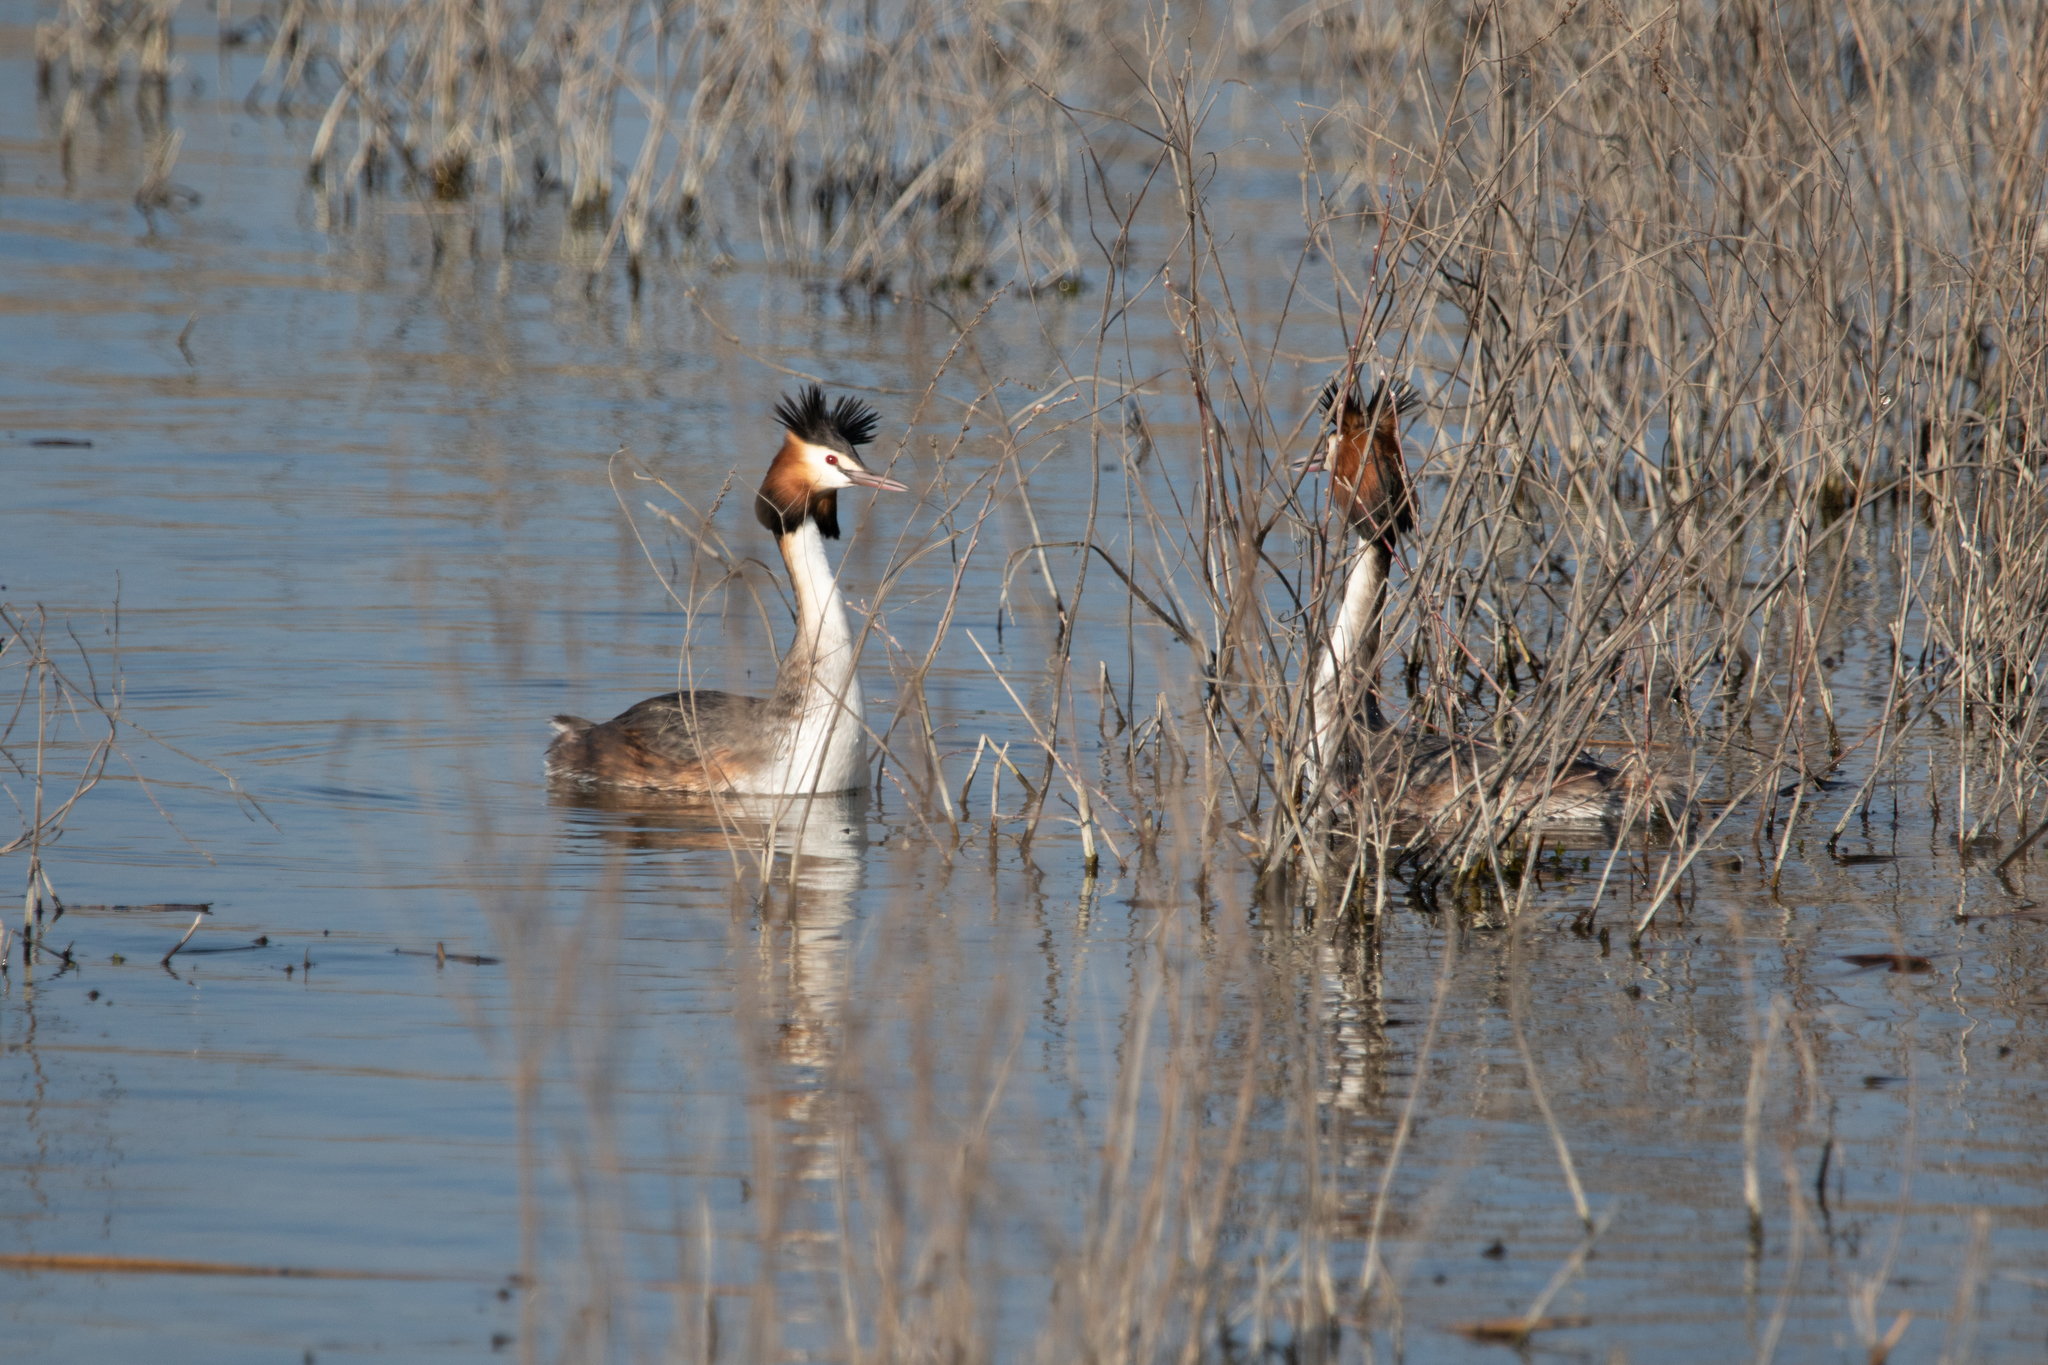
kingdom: Animalia
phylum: Chordata
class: Aves
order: Podicipediformes
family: Podicipedidae
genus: Podiceps
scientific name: Podiceps cristatus
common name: Great crested grebe
